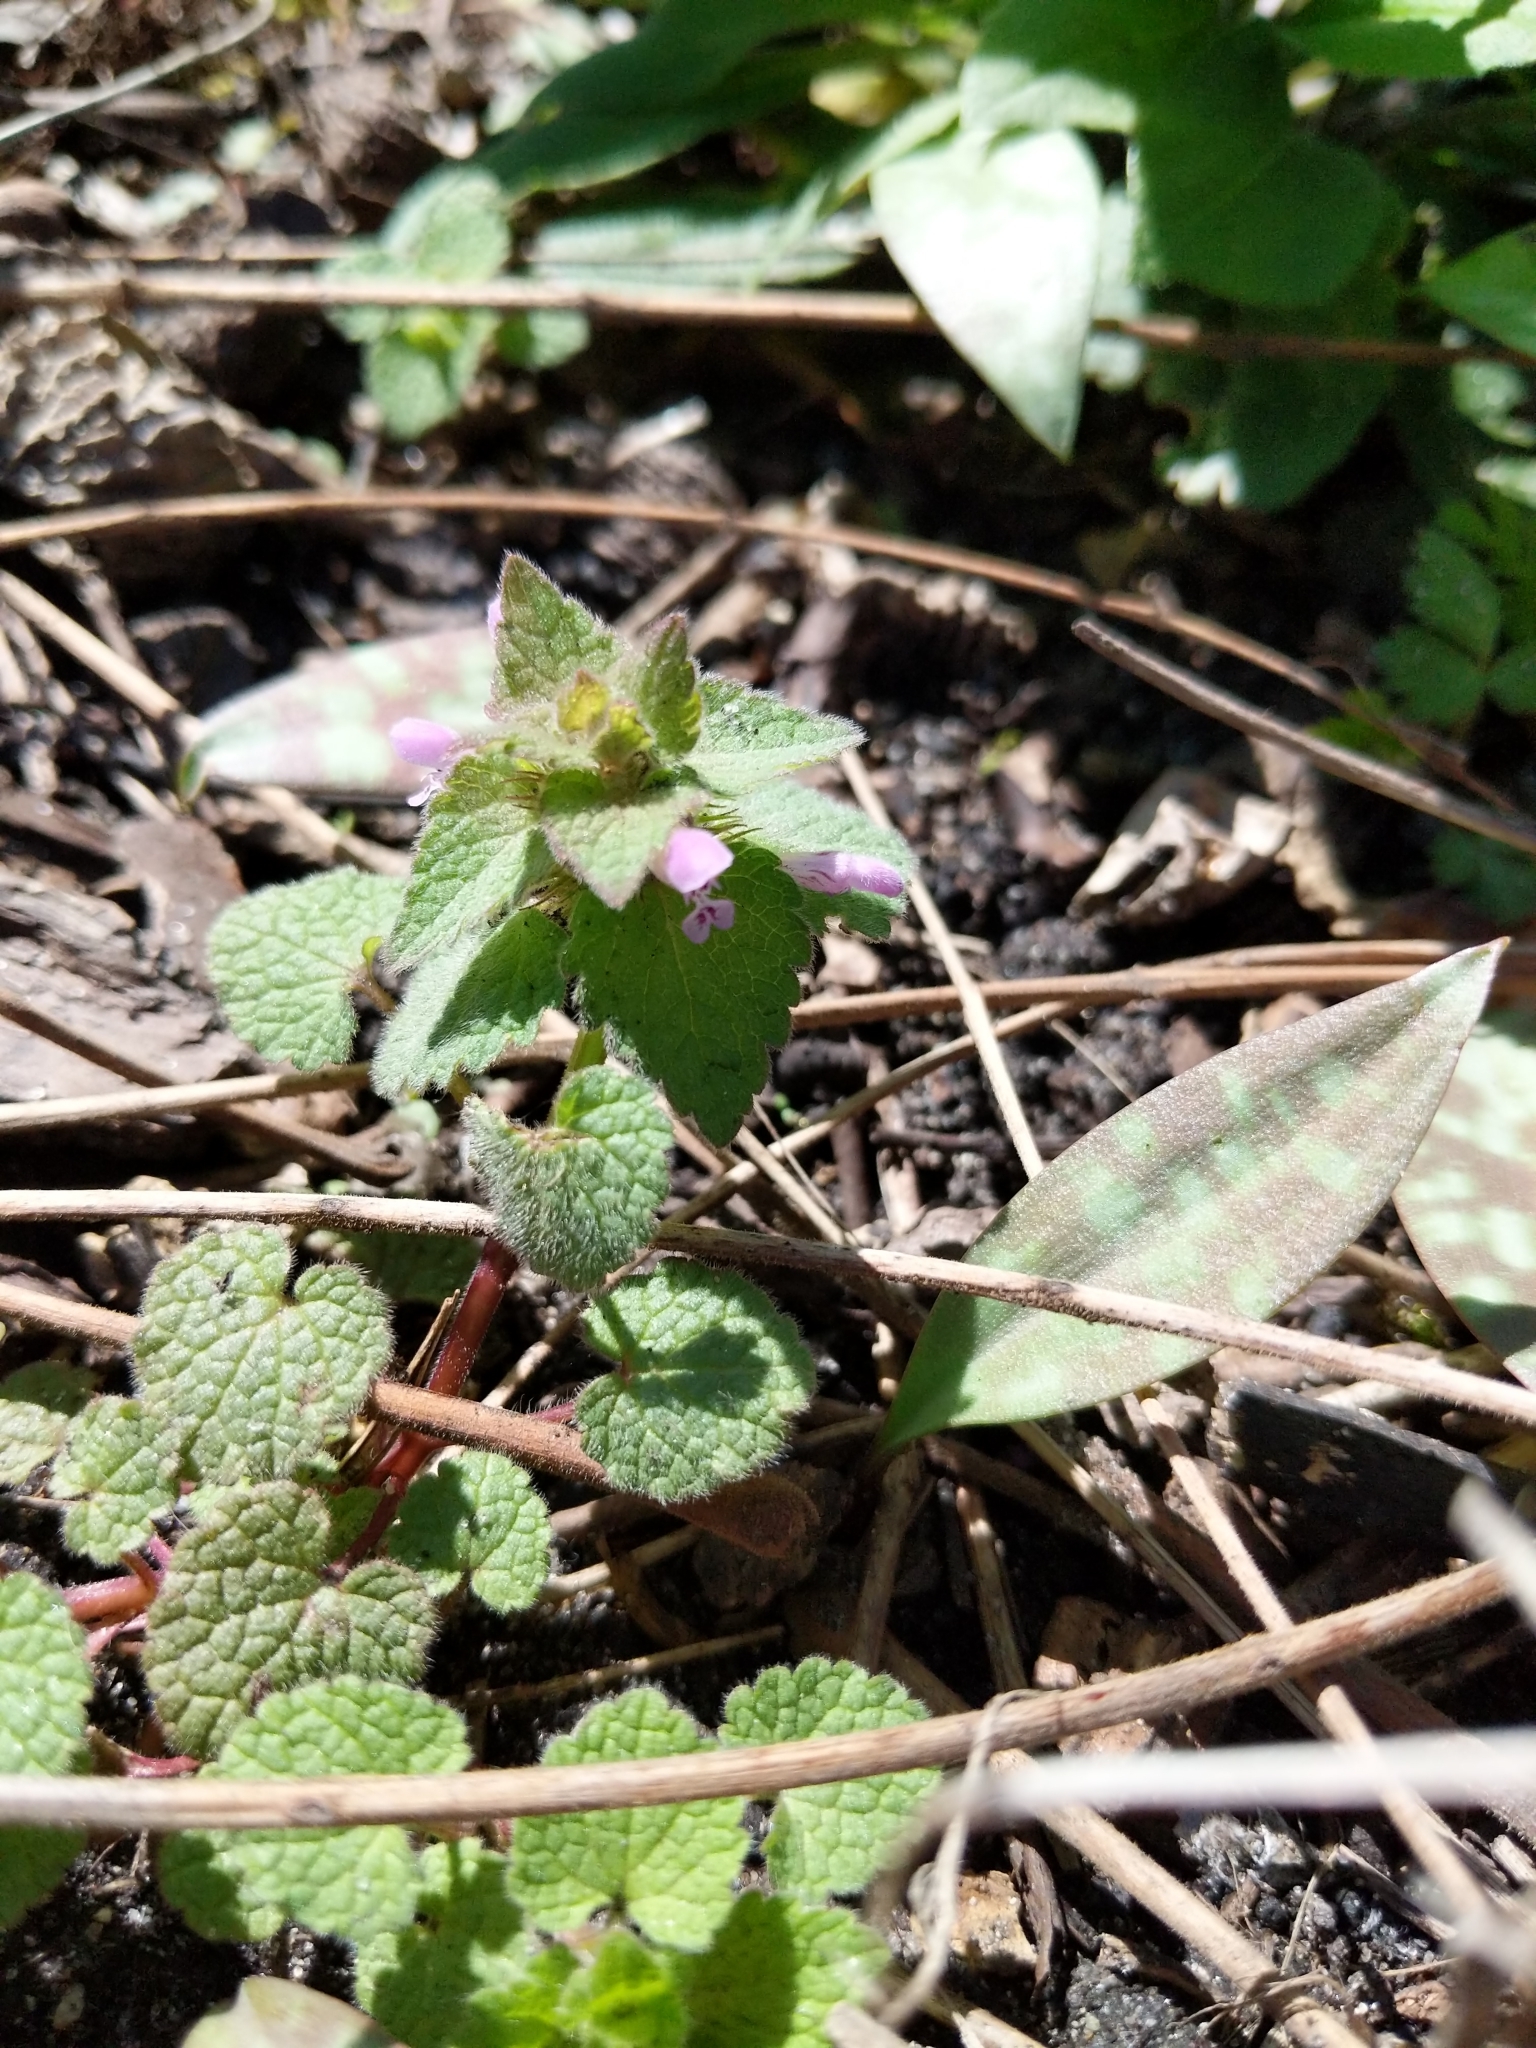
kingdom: Plantae
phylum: Tracheophyta
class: Magnoliopsida
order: Lamiales
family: Lamiaceae
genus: Lamium
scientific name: Lamium purpureum
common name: Red dead-nettle
